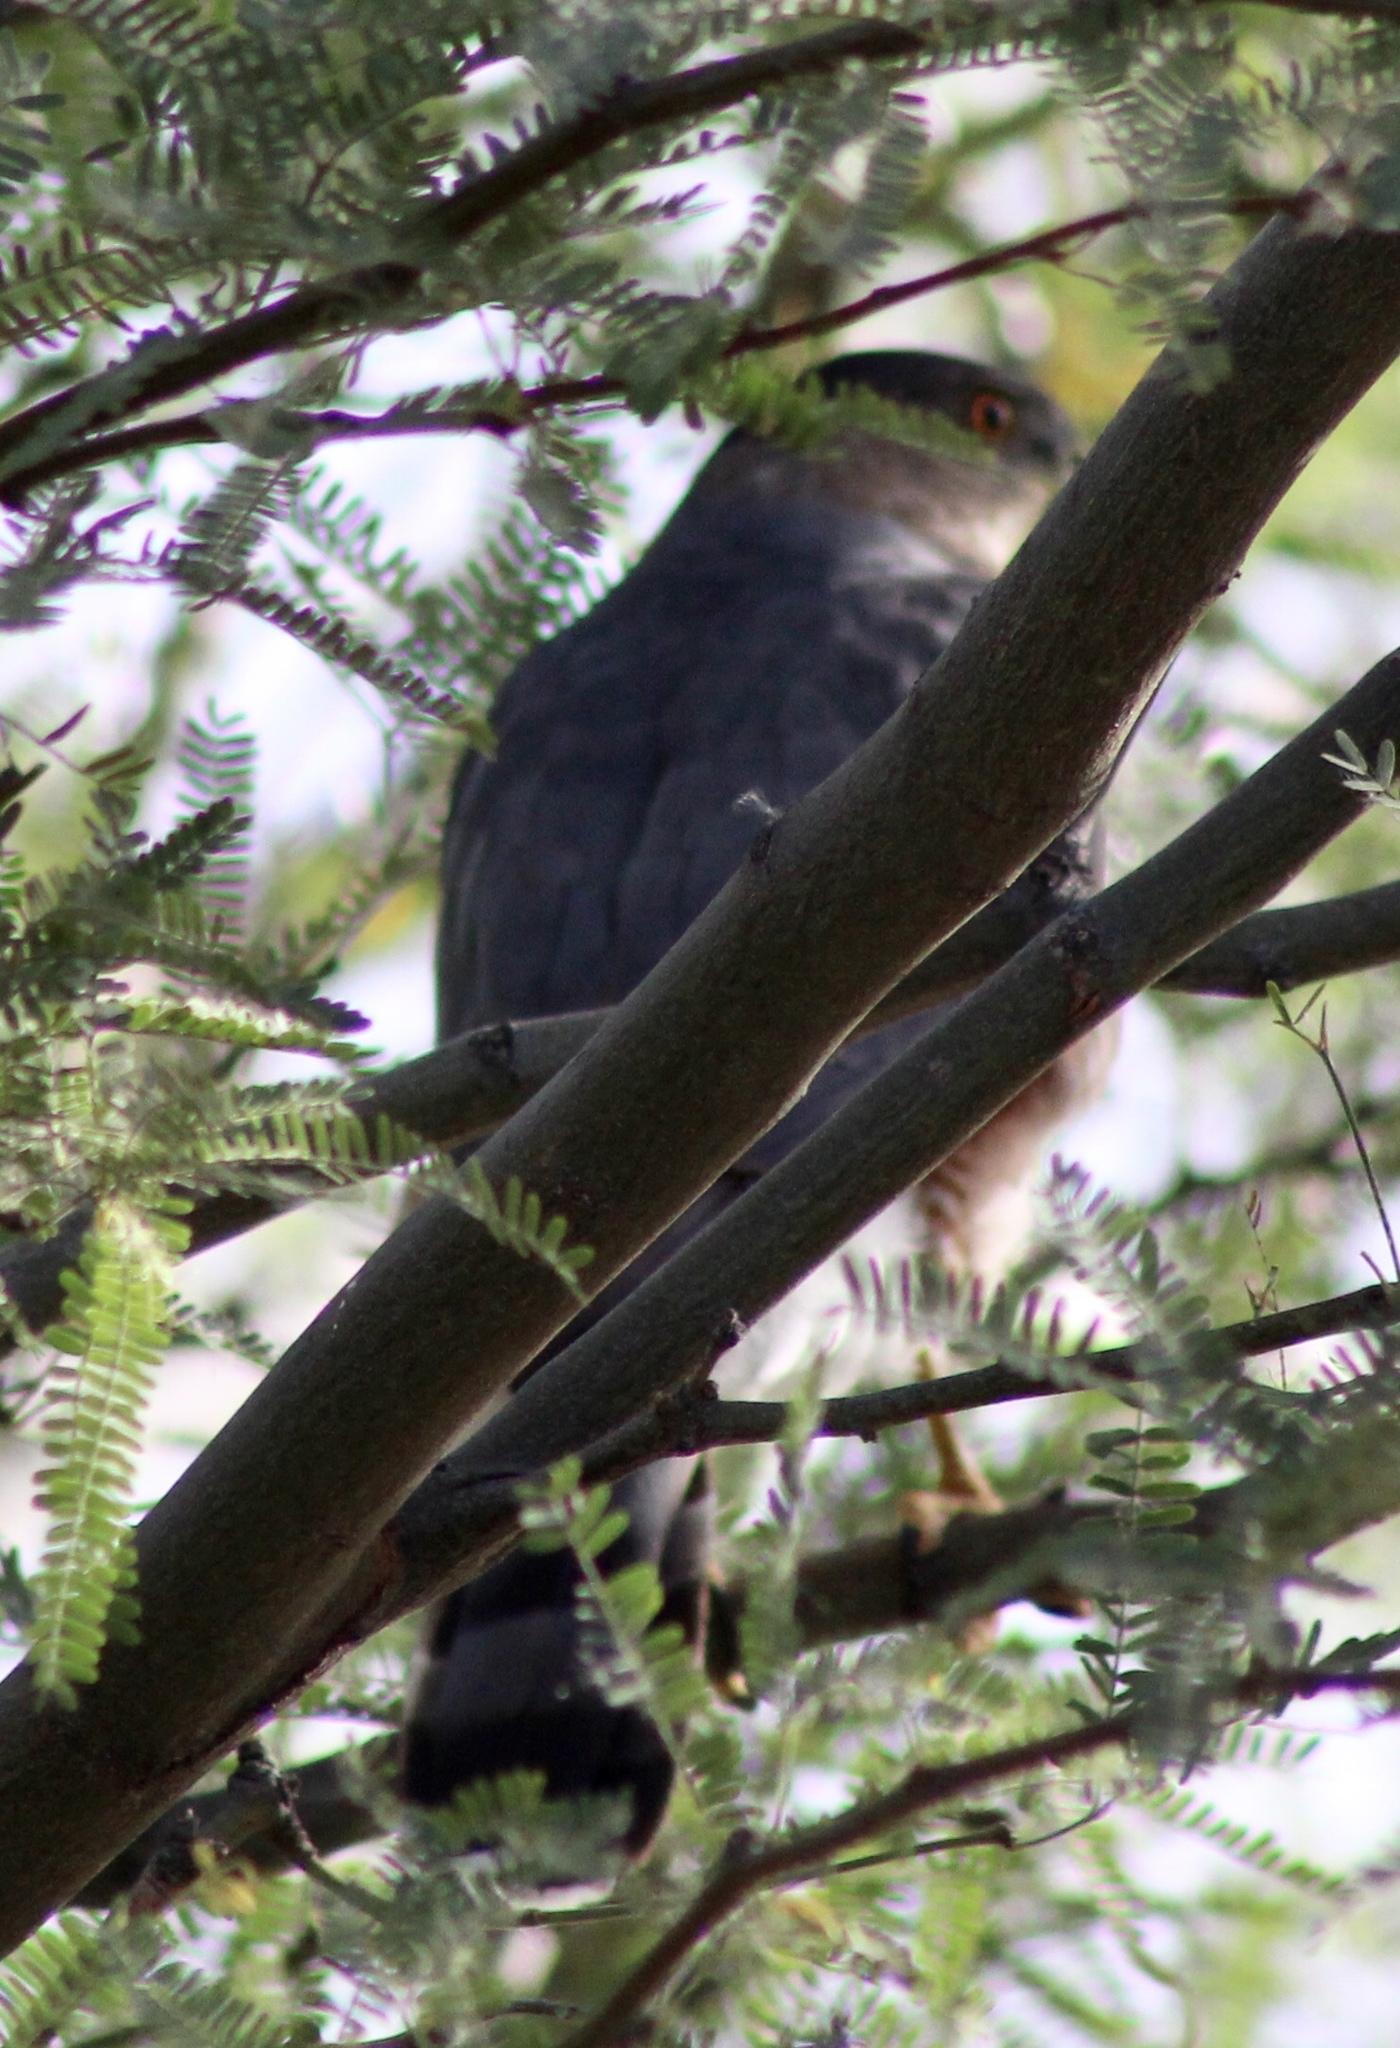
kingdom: Animalia
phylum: Chordata
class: Aves
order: Accipitriformes
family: Accipitridae
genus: Accipiter
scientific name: Accipiter cooperii
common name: Cooper's hawk
